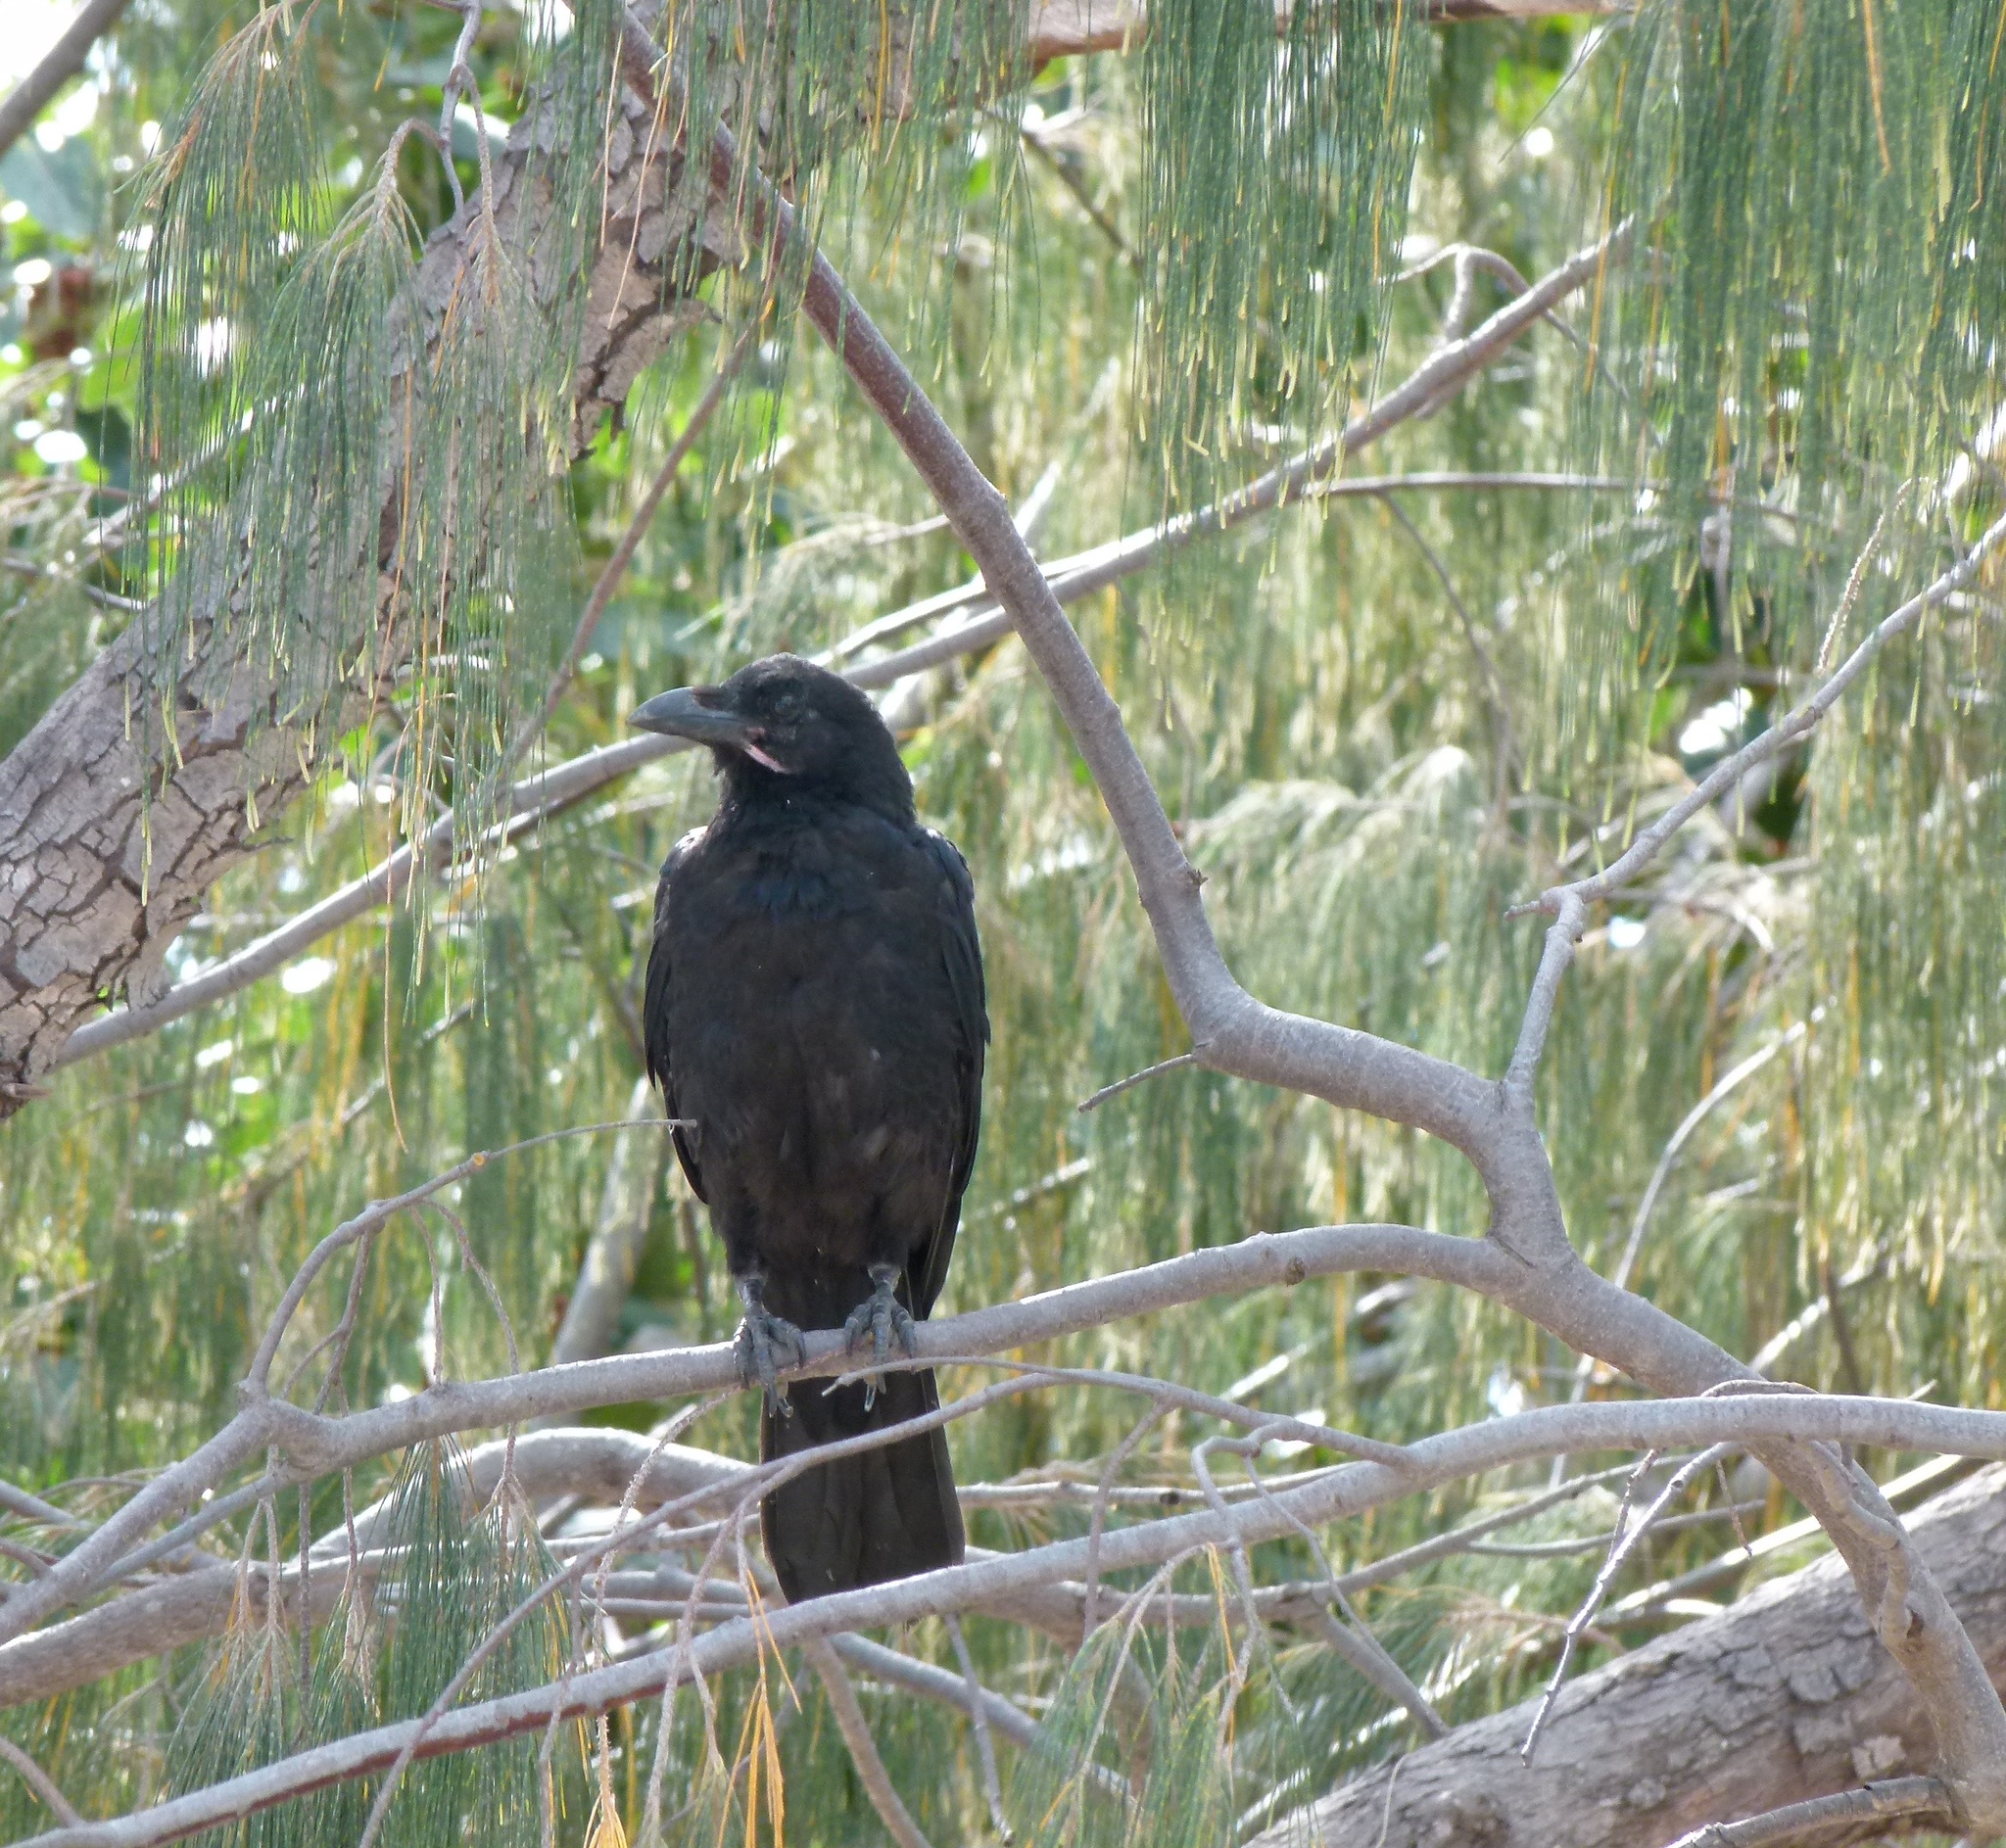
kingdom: Animalia
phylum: Chordata
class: Aves
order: Passeriformes
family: Corvidae
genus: Corvus
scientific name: Corvus orru
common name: Torresian crow
